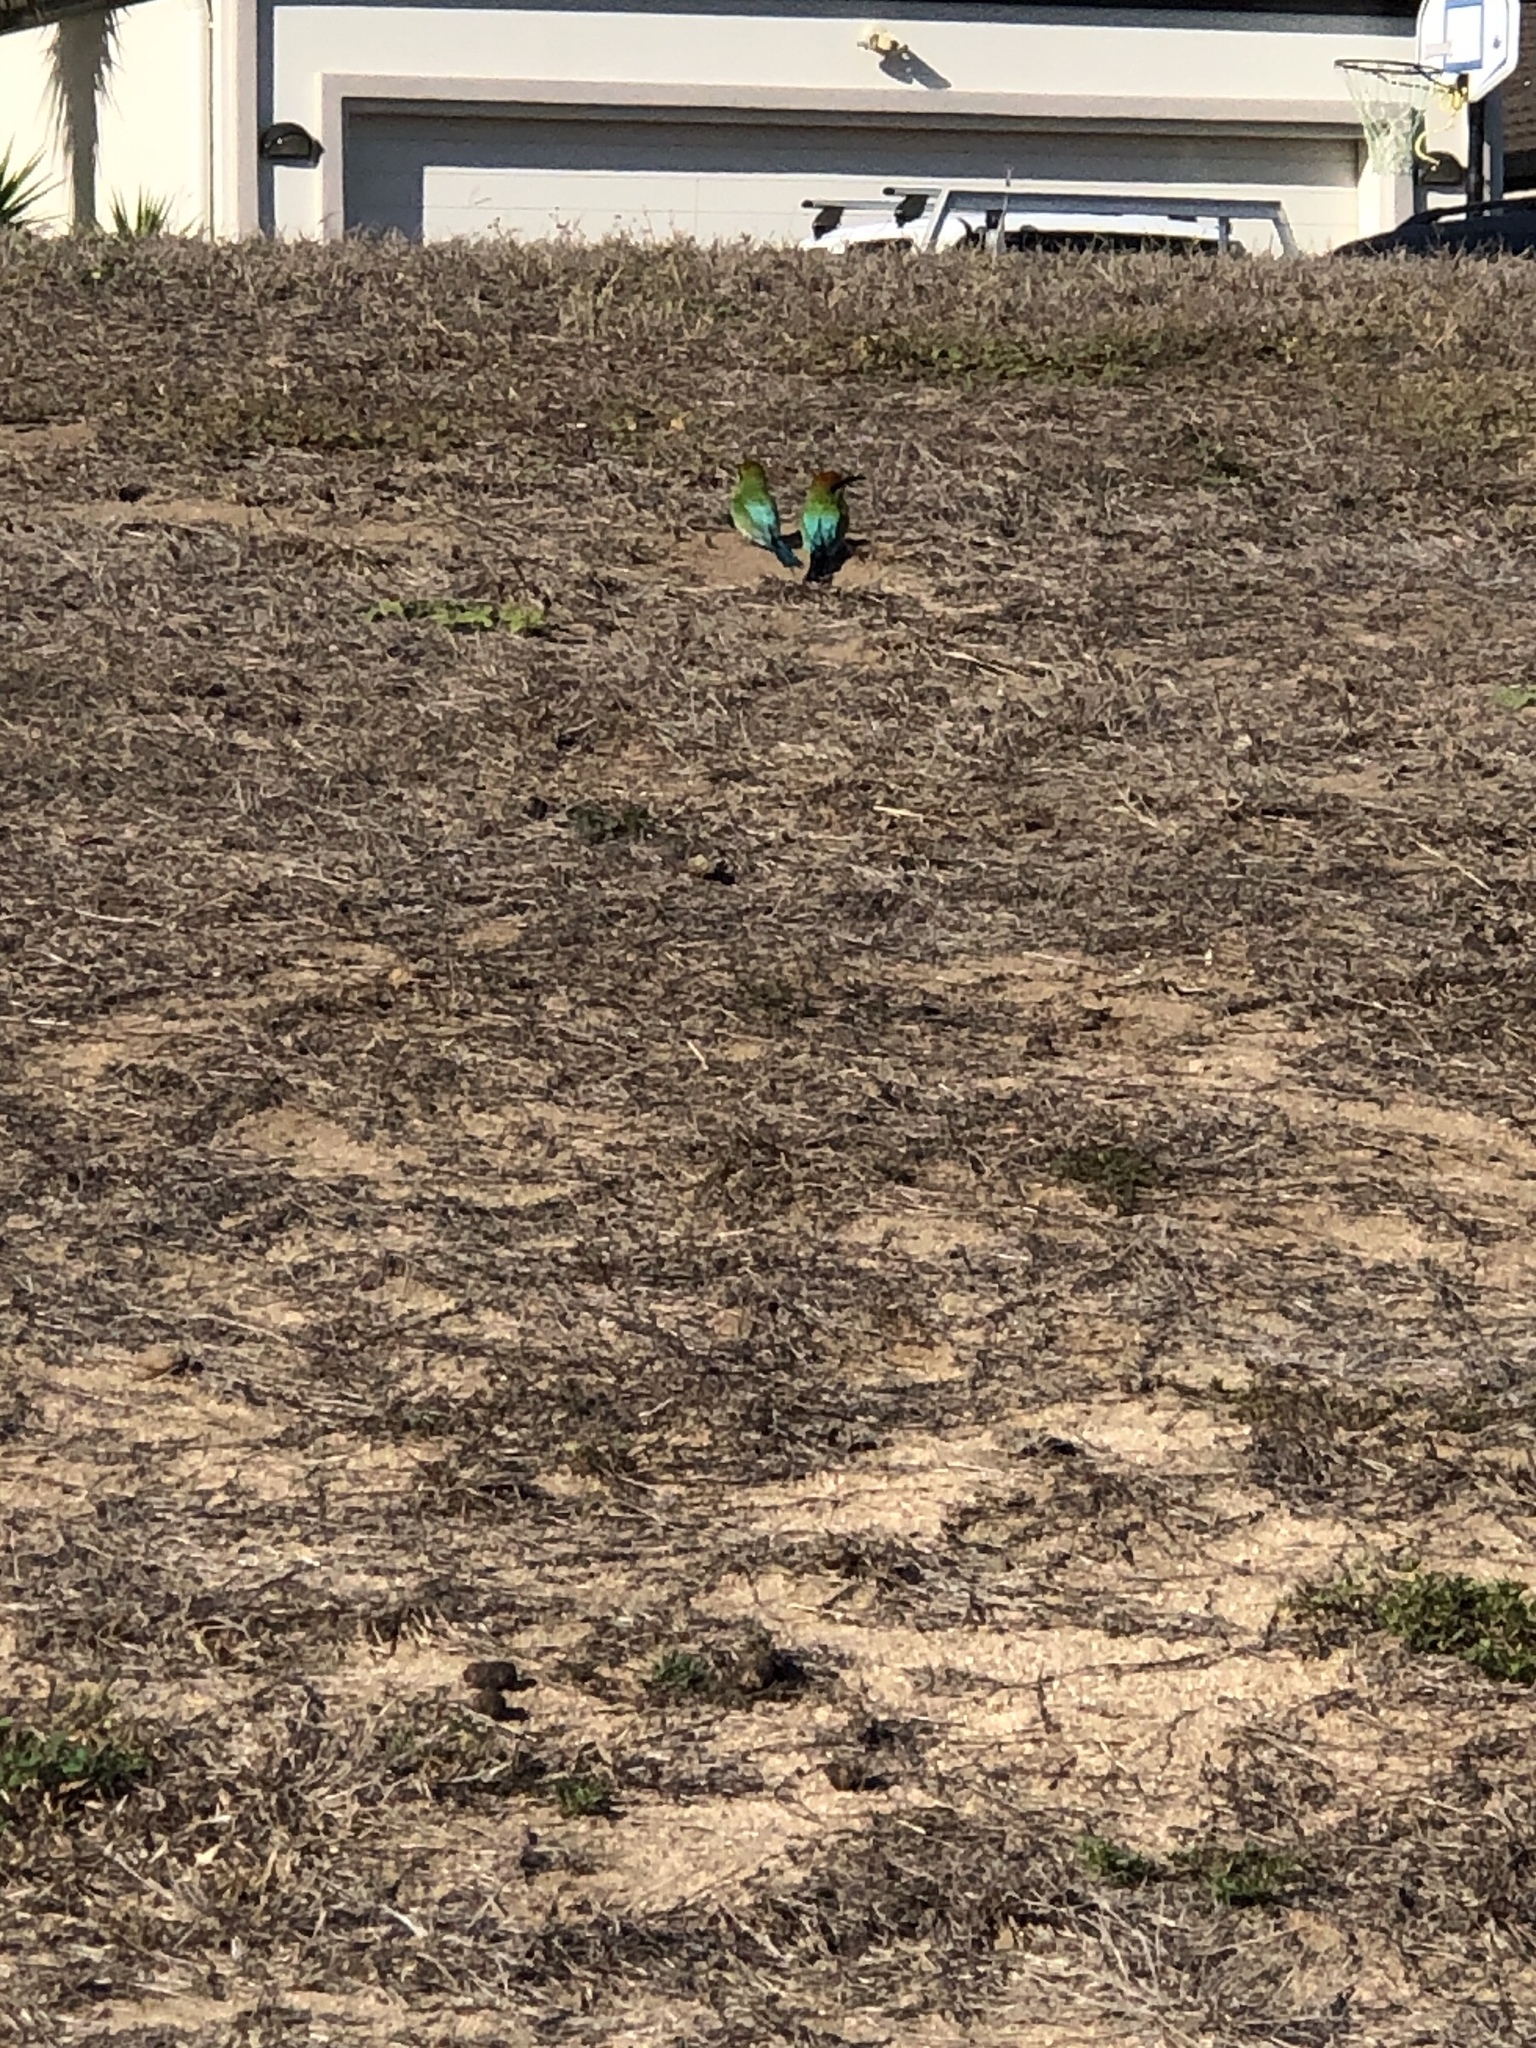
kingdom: Animalia
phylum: Chordata
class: Aves
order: Coraciiformes
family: Meropidae
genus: Merops
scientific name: Merops ornatus
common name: Rainbow bee-eater
